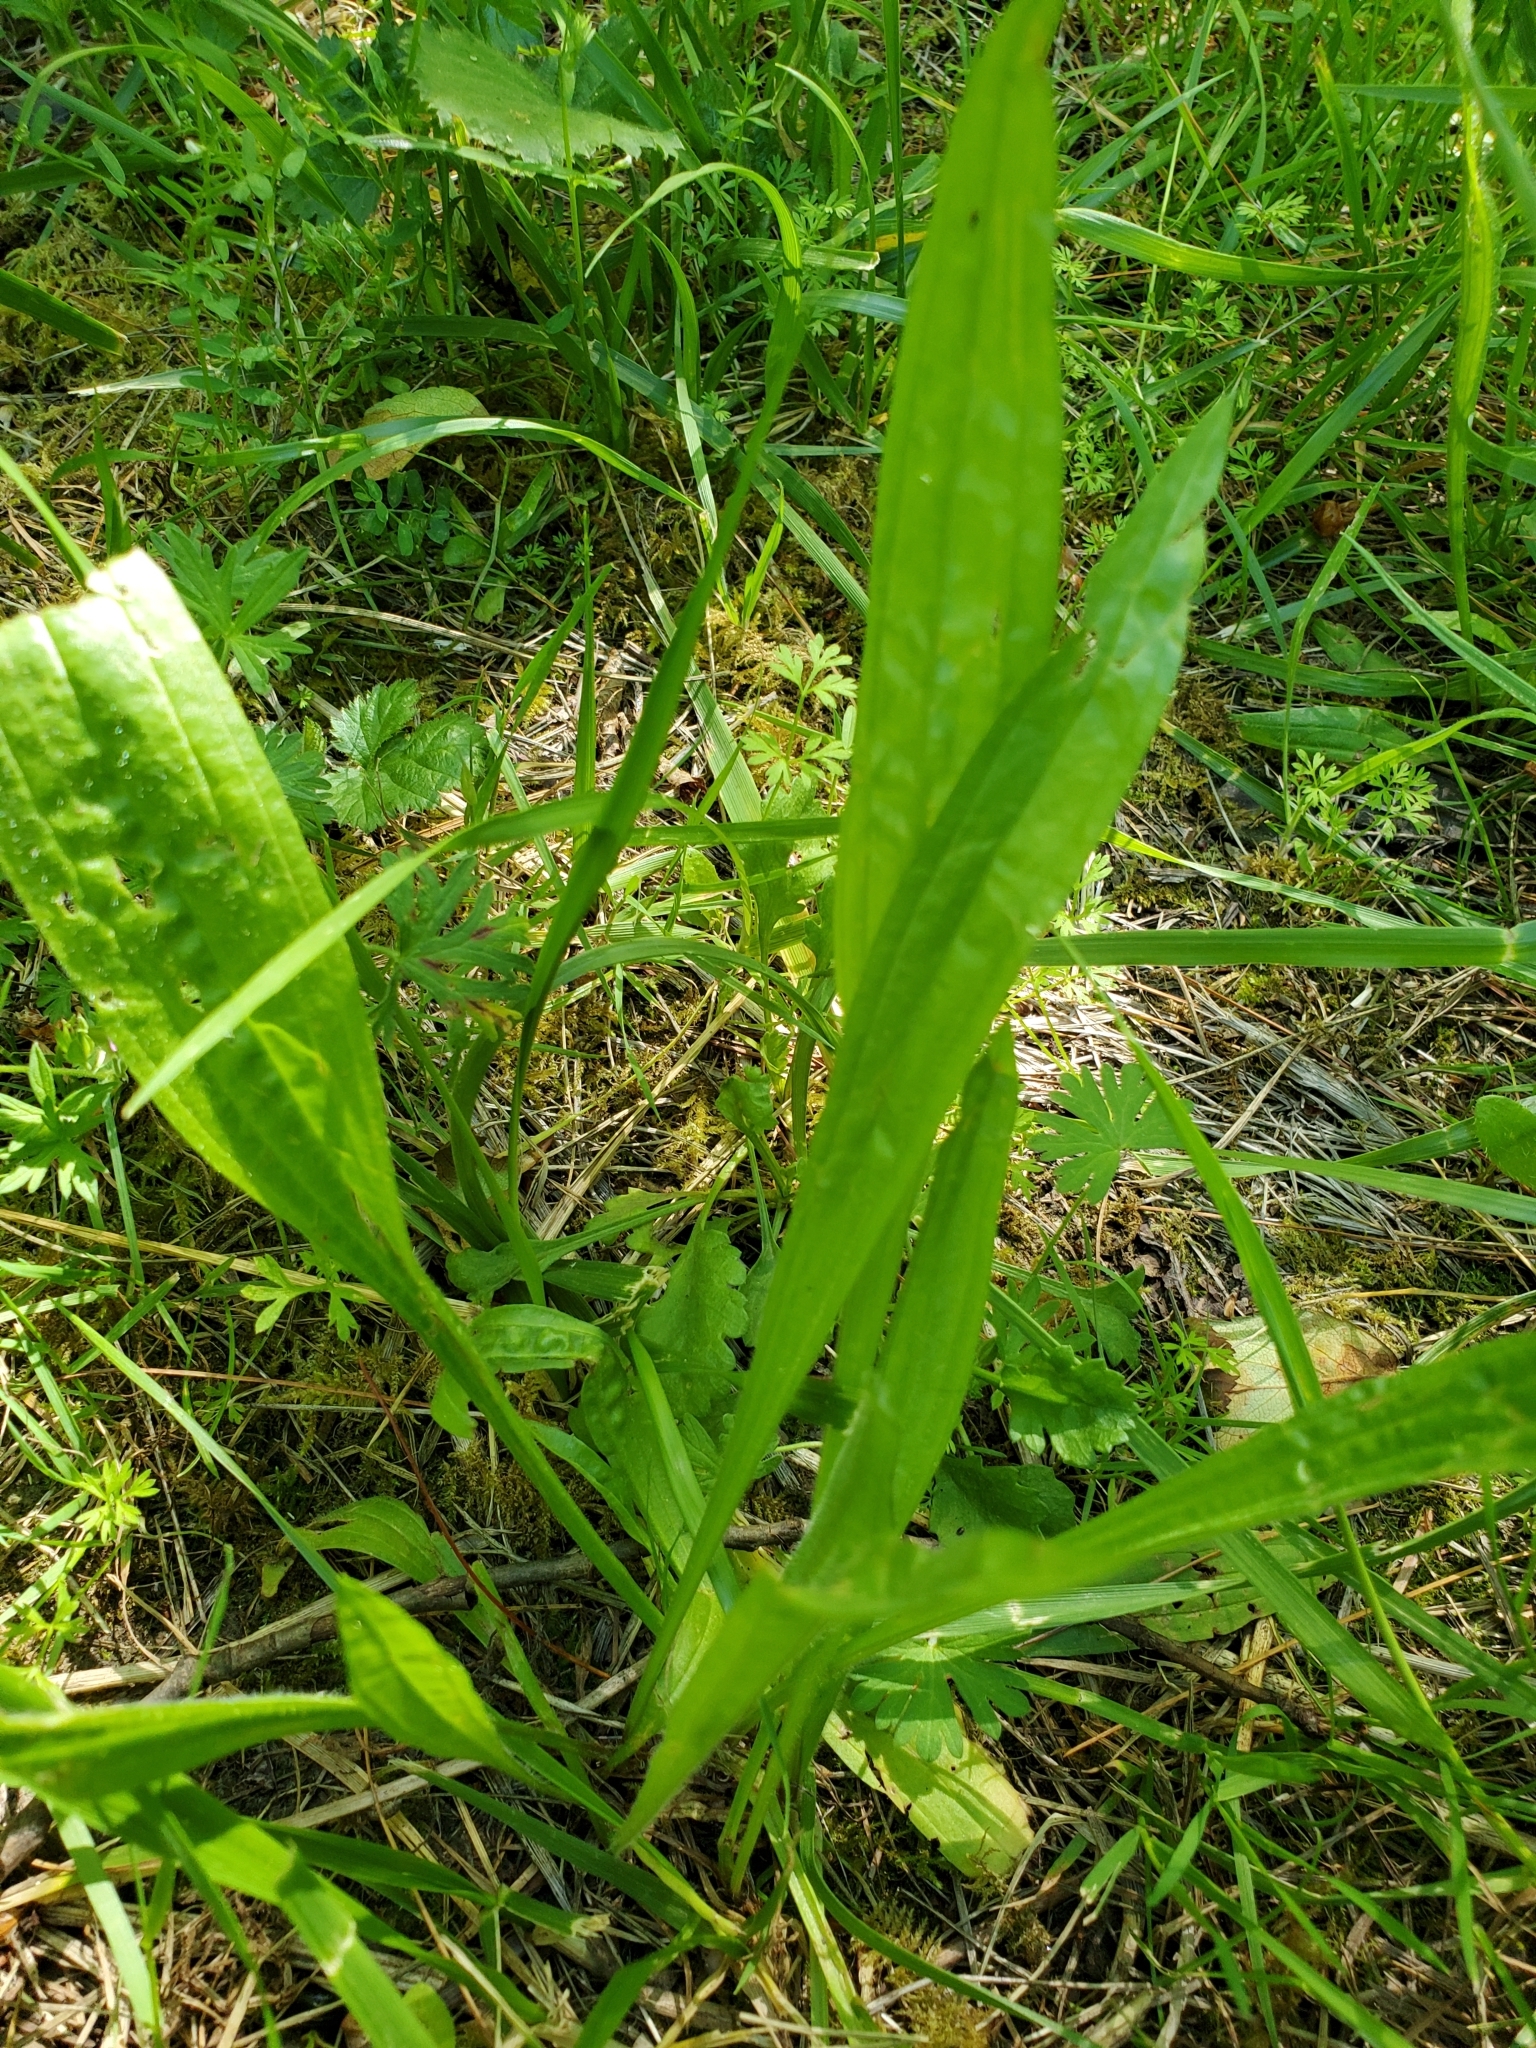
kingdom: Plantae
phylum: Tracheophyta
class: Magnoliopsida
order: Lamiales
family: Plantaginaceae
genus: Plantago
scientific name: Plantago lanceolata
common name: Ribwort plantain
